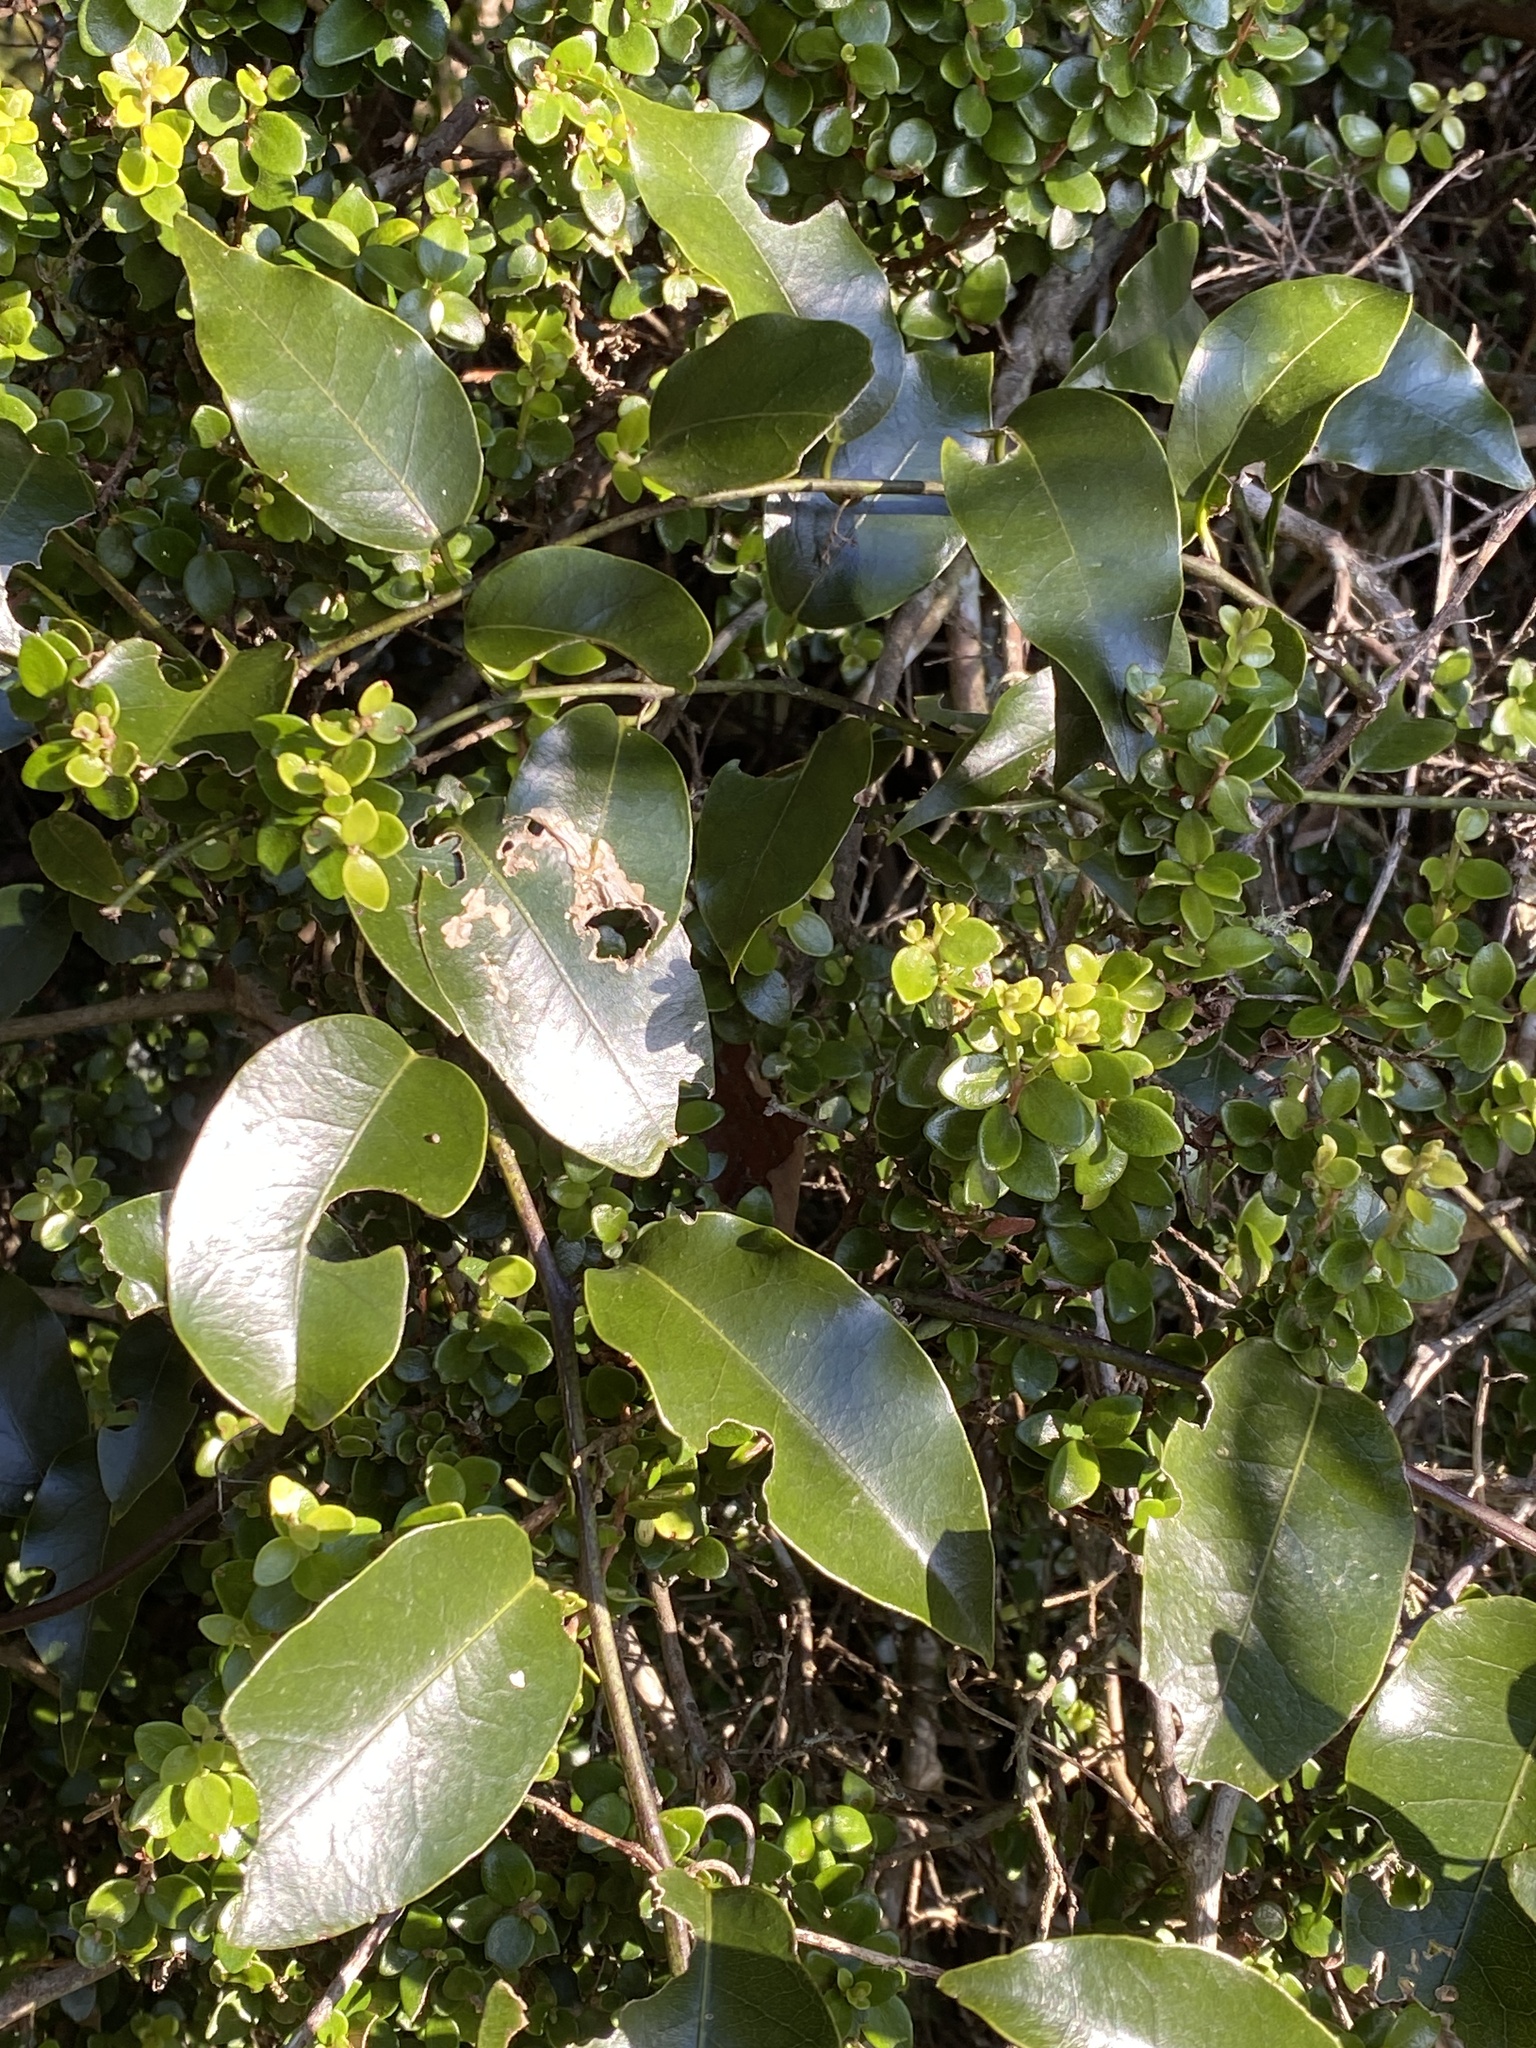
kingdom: Plantae
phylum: Tracheophyta
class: Magnoliopsida
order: Malpighiales
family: Passifloraceae
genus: Passiflora
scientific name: Passiflora tetrandra
